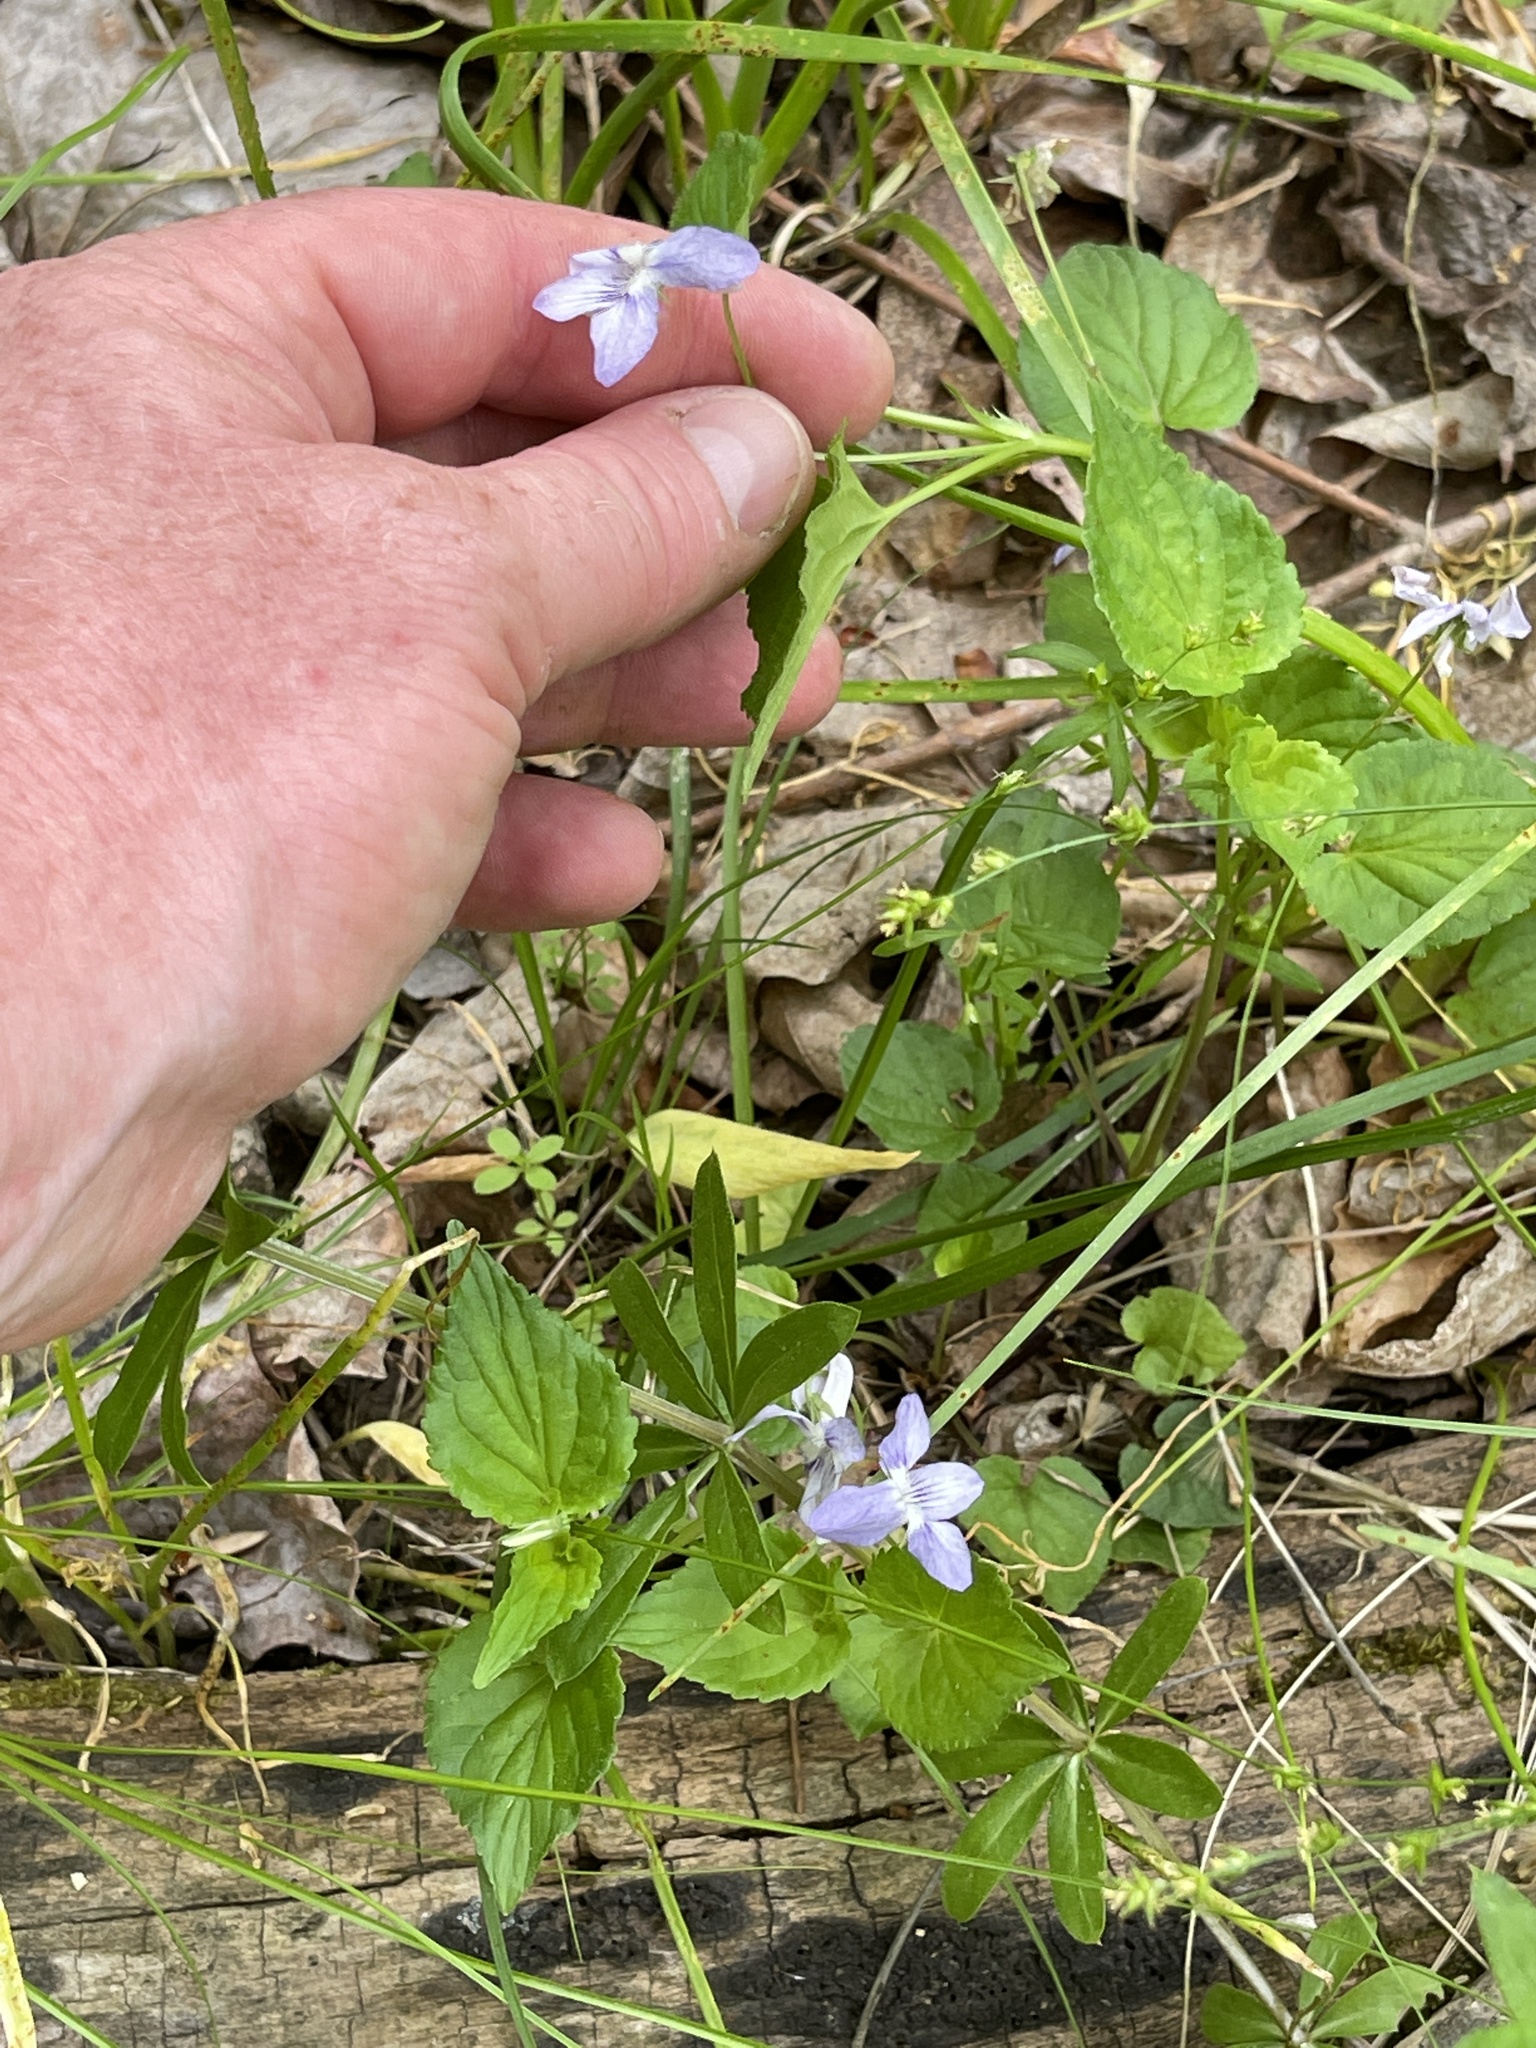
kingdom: Plantae
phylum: Tracheophyta
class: Magnoliopsida
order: Malpighiales
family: Violaceae
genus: Viola
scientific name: Viola labradorica
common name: Labrador violet
